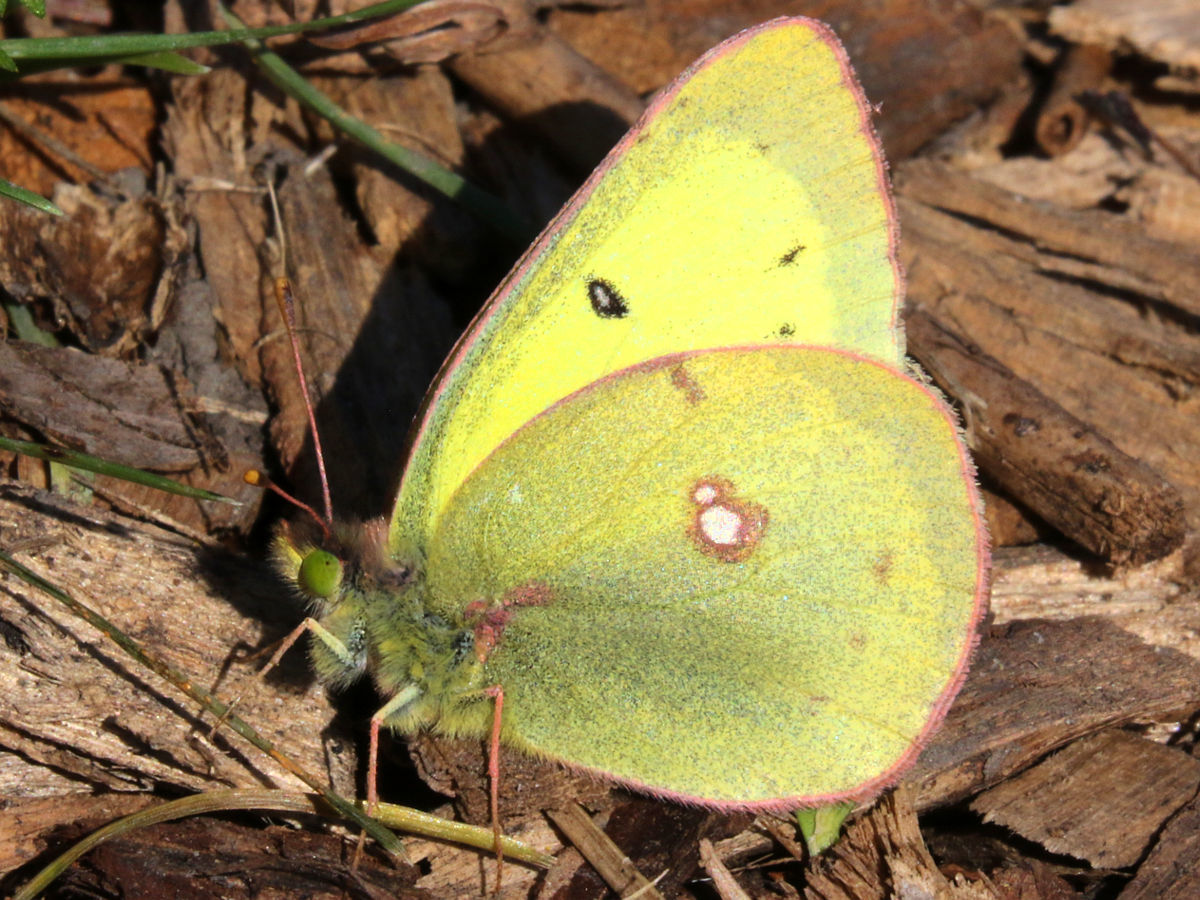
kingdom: Animalia
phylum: Arthropoda
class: Insecta
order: Lepidoptera
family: Pieridae
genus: Colias
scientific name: Colias philodice
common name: Clouded sulphur
